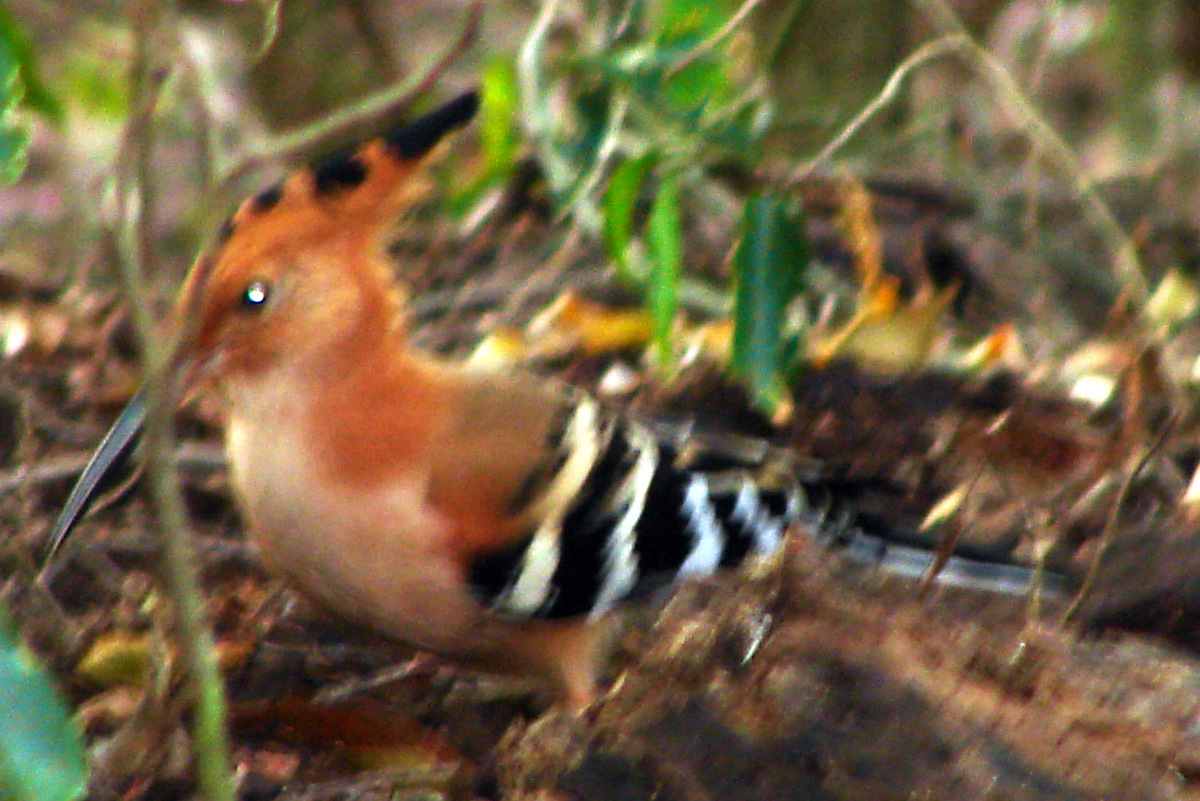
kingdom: Animalia
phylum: Chordata
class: Aves
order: Bucerotiformes
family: Upupidae
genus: Upupa
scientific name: Upupa marginata
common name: Madagascar hoopoe
